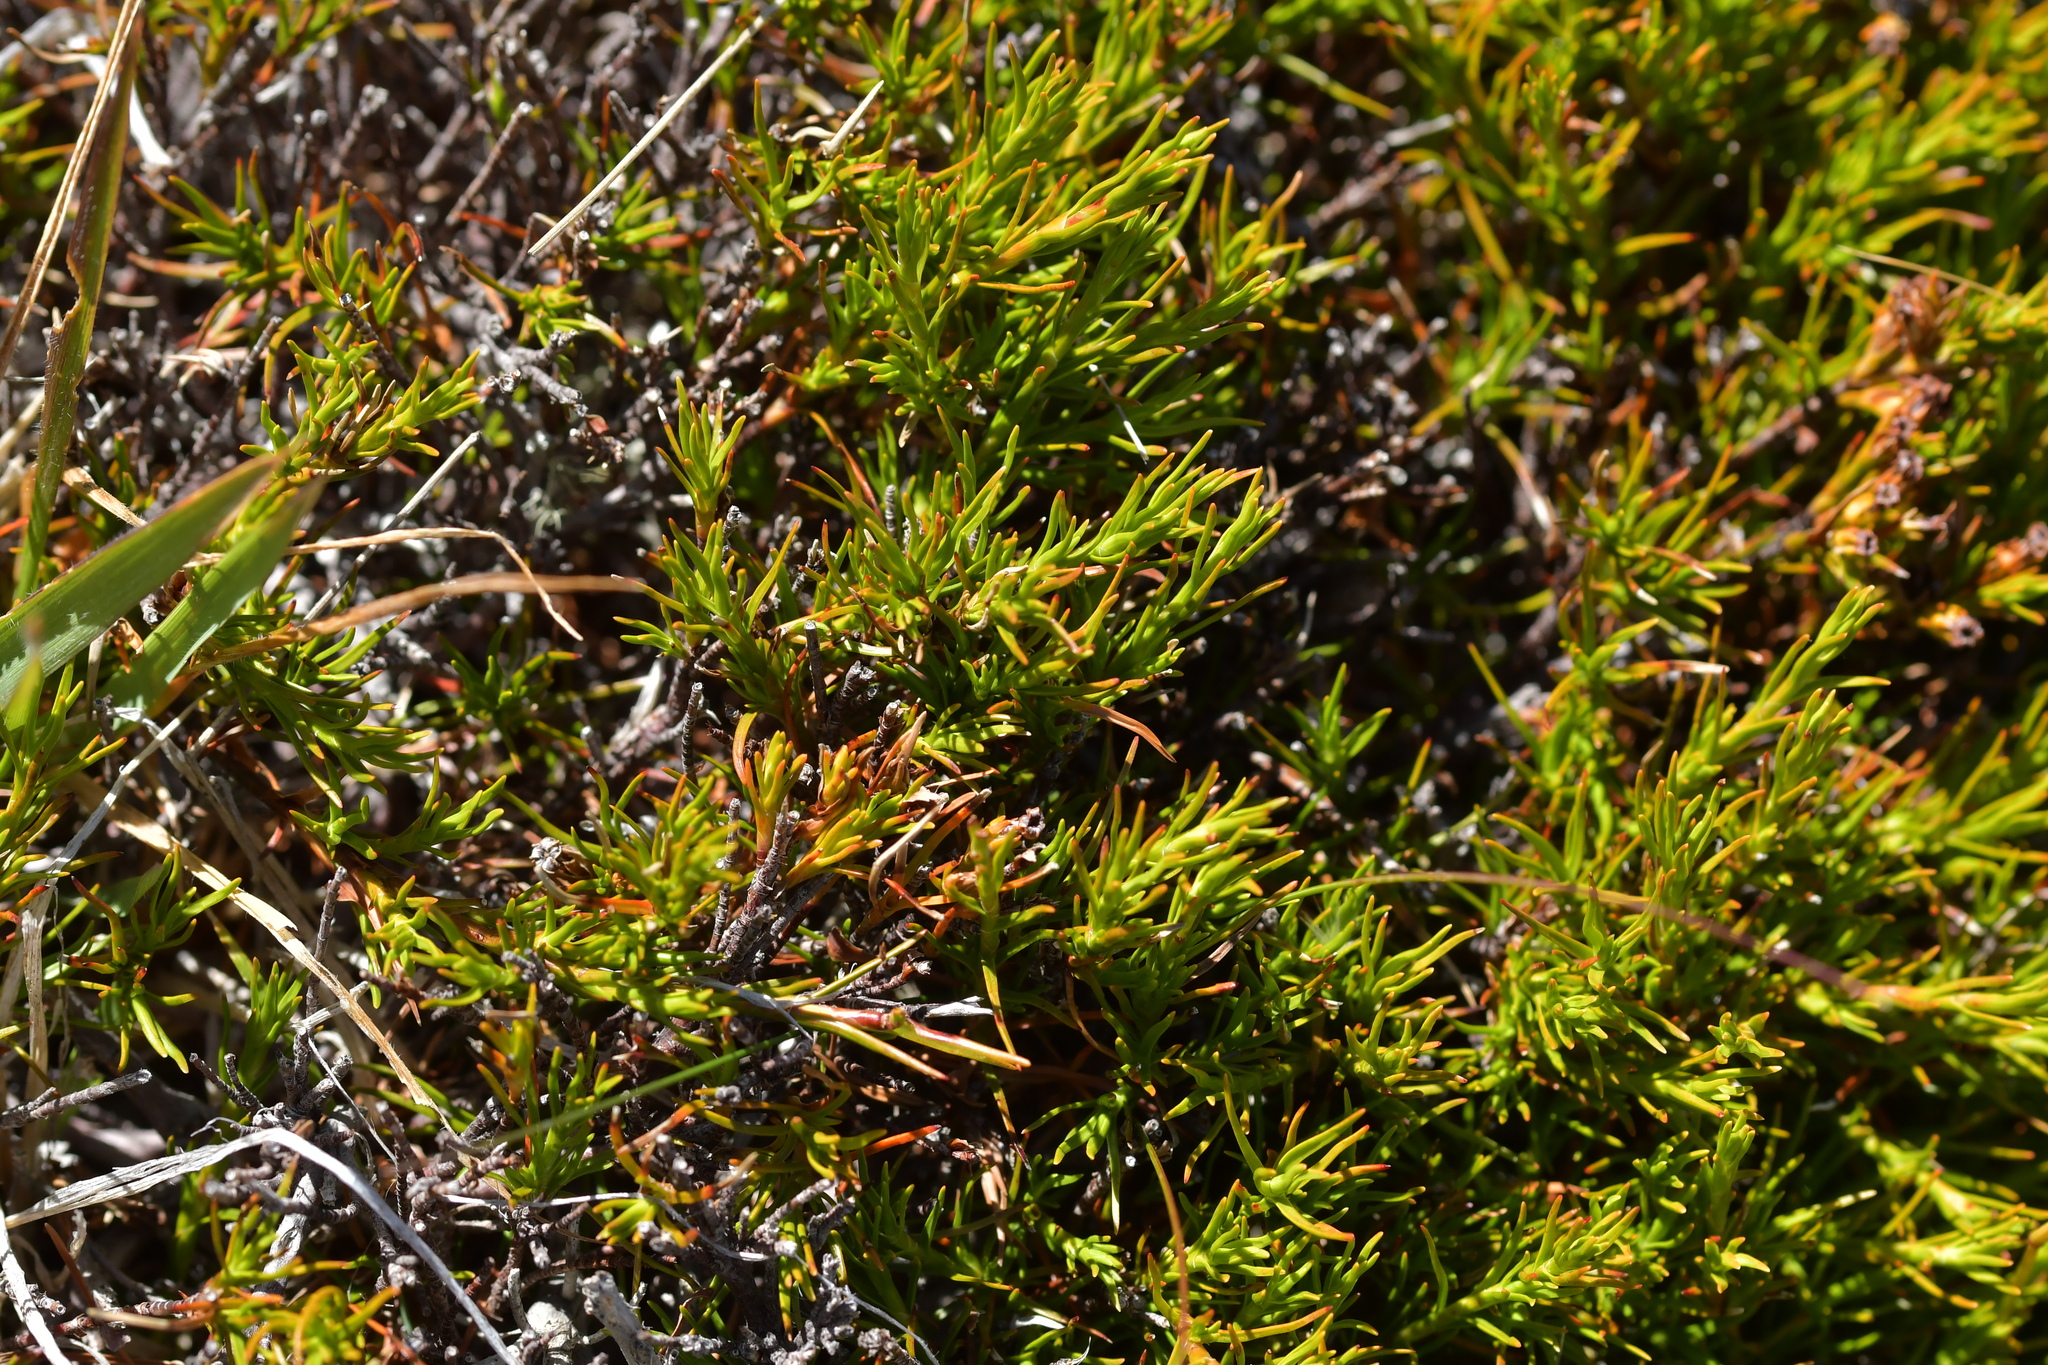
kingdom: Plantae
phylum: Tracheophyta
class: Magnoliopsida
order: Ericales
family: Ericaceae
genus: Dracophyllum
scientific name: Dracophyllum rosmarinifolium
